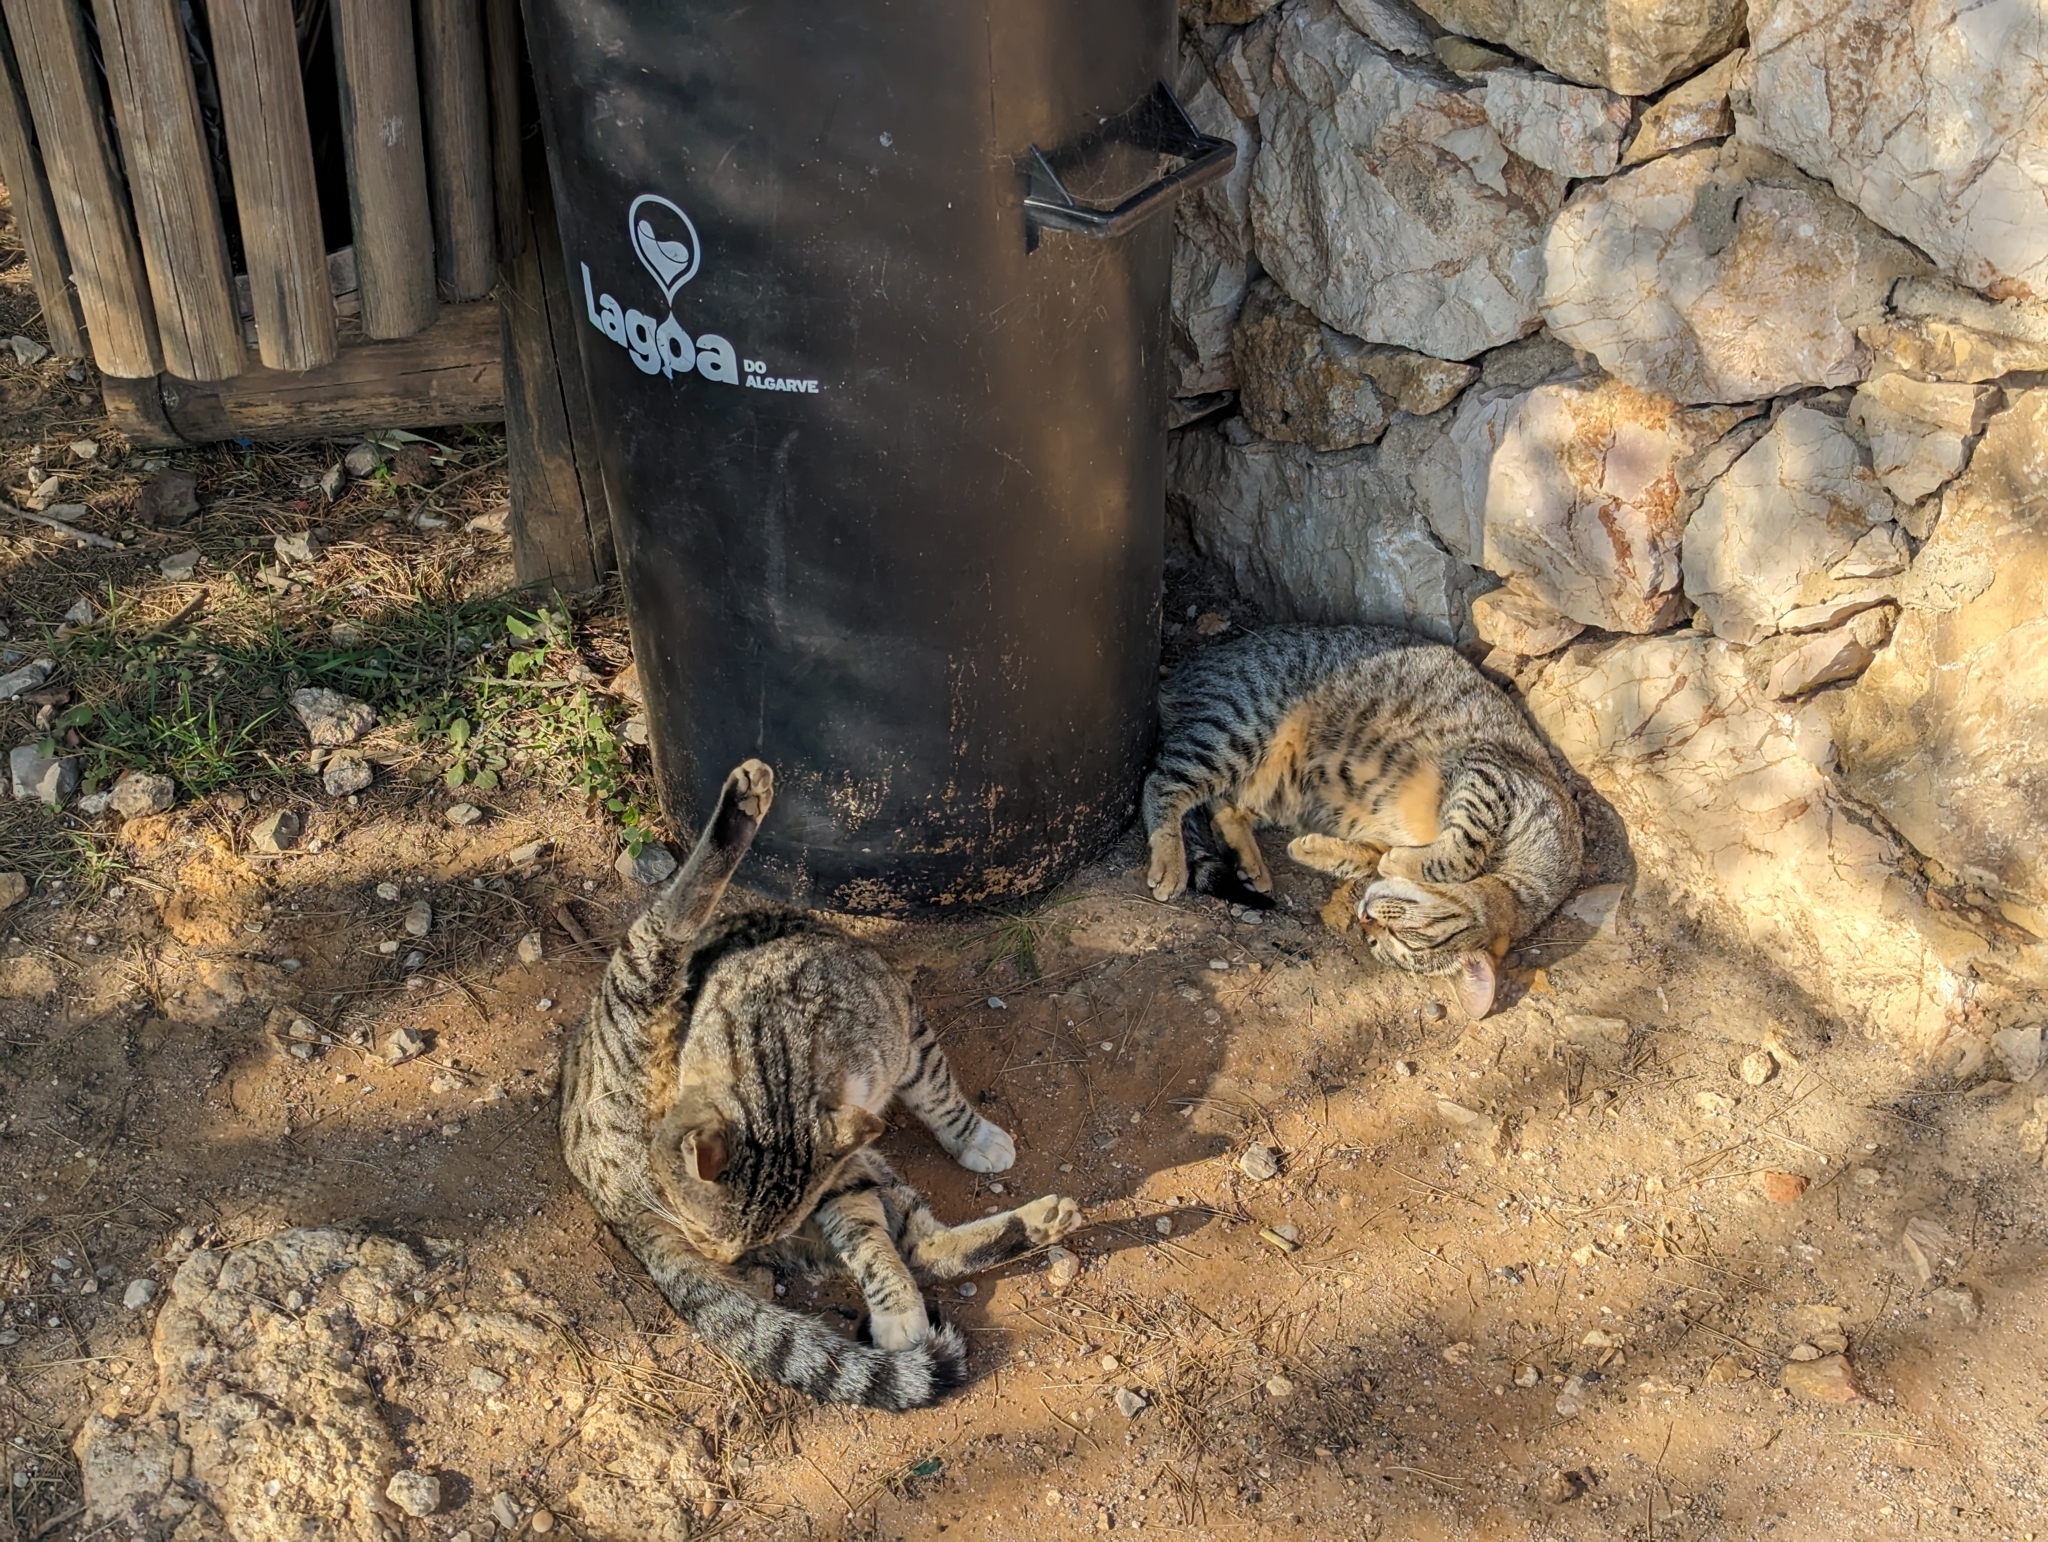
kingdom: Animalia
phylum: Chordata
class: Mammalia
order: Carnivora
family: Felidae
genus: Felis
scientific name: Felis catus
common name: Domestic cat
